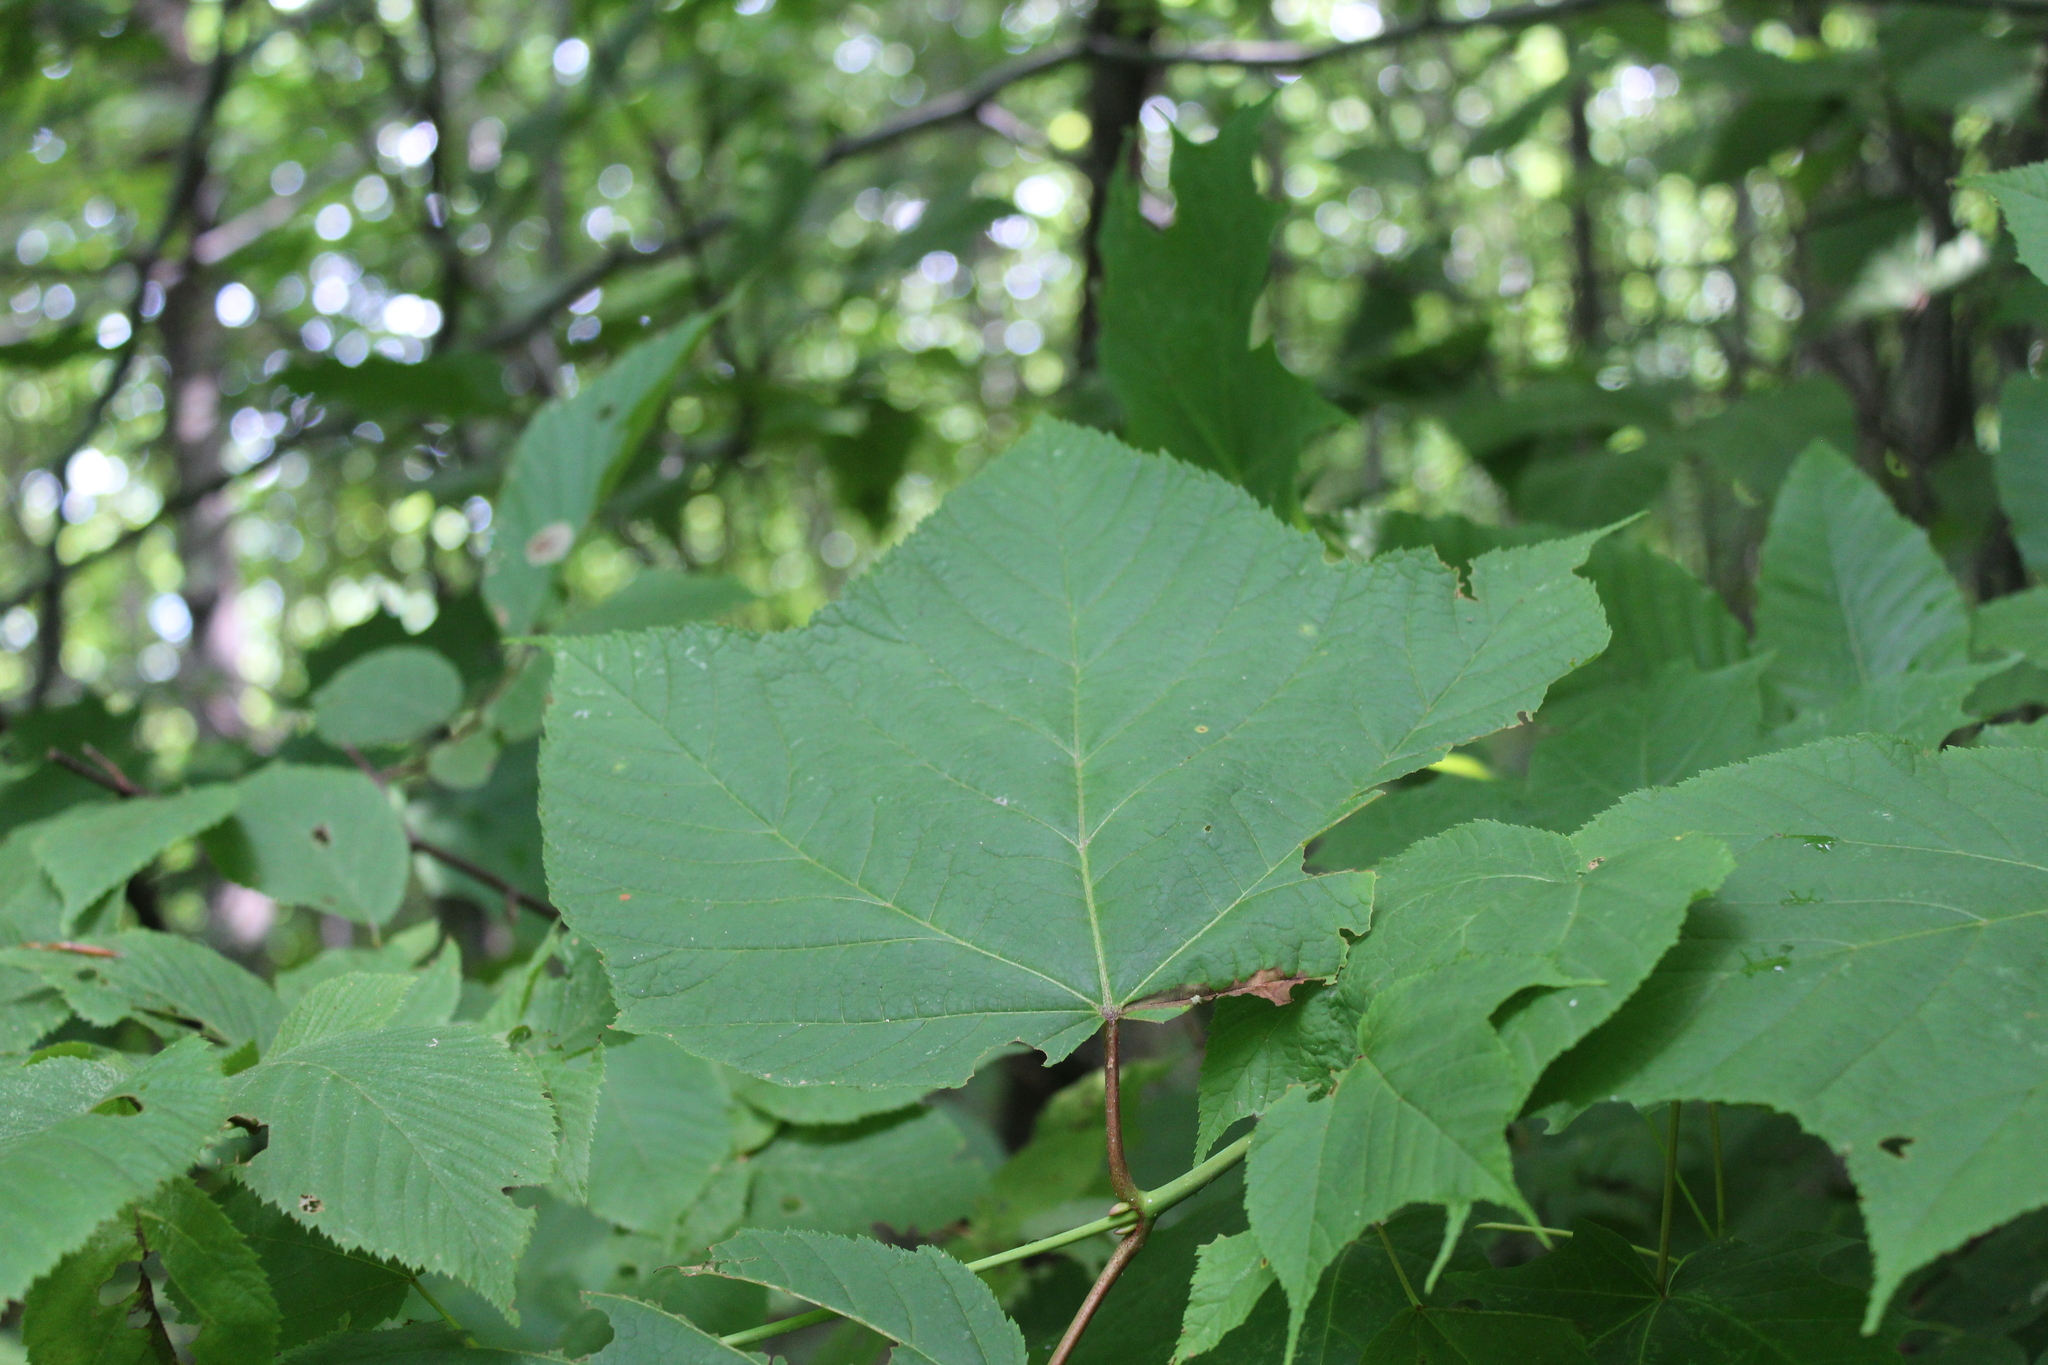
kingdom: Plantae
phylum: Tracheophyta
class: Magnoliopsida
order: Sapindales
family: Sapindaceae
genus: Acer
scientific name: Acer pensylvanicum
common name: Moosewood
